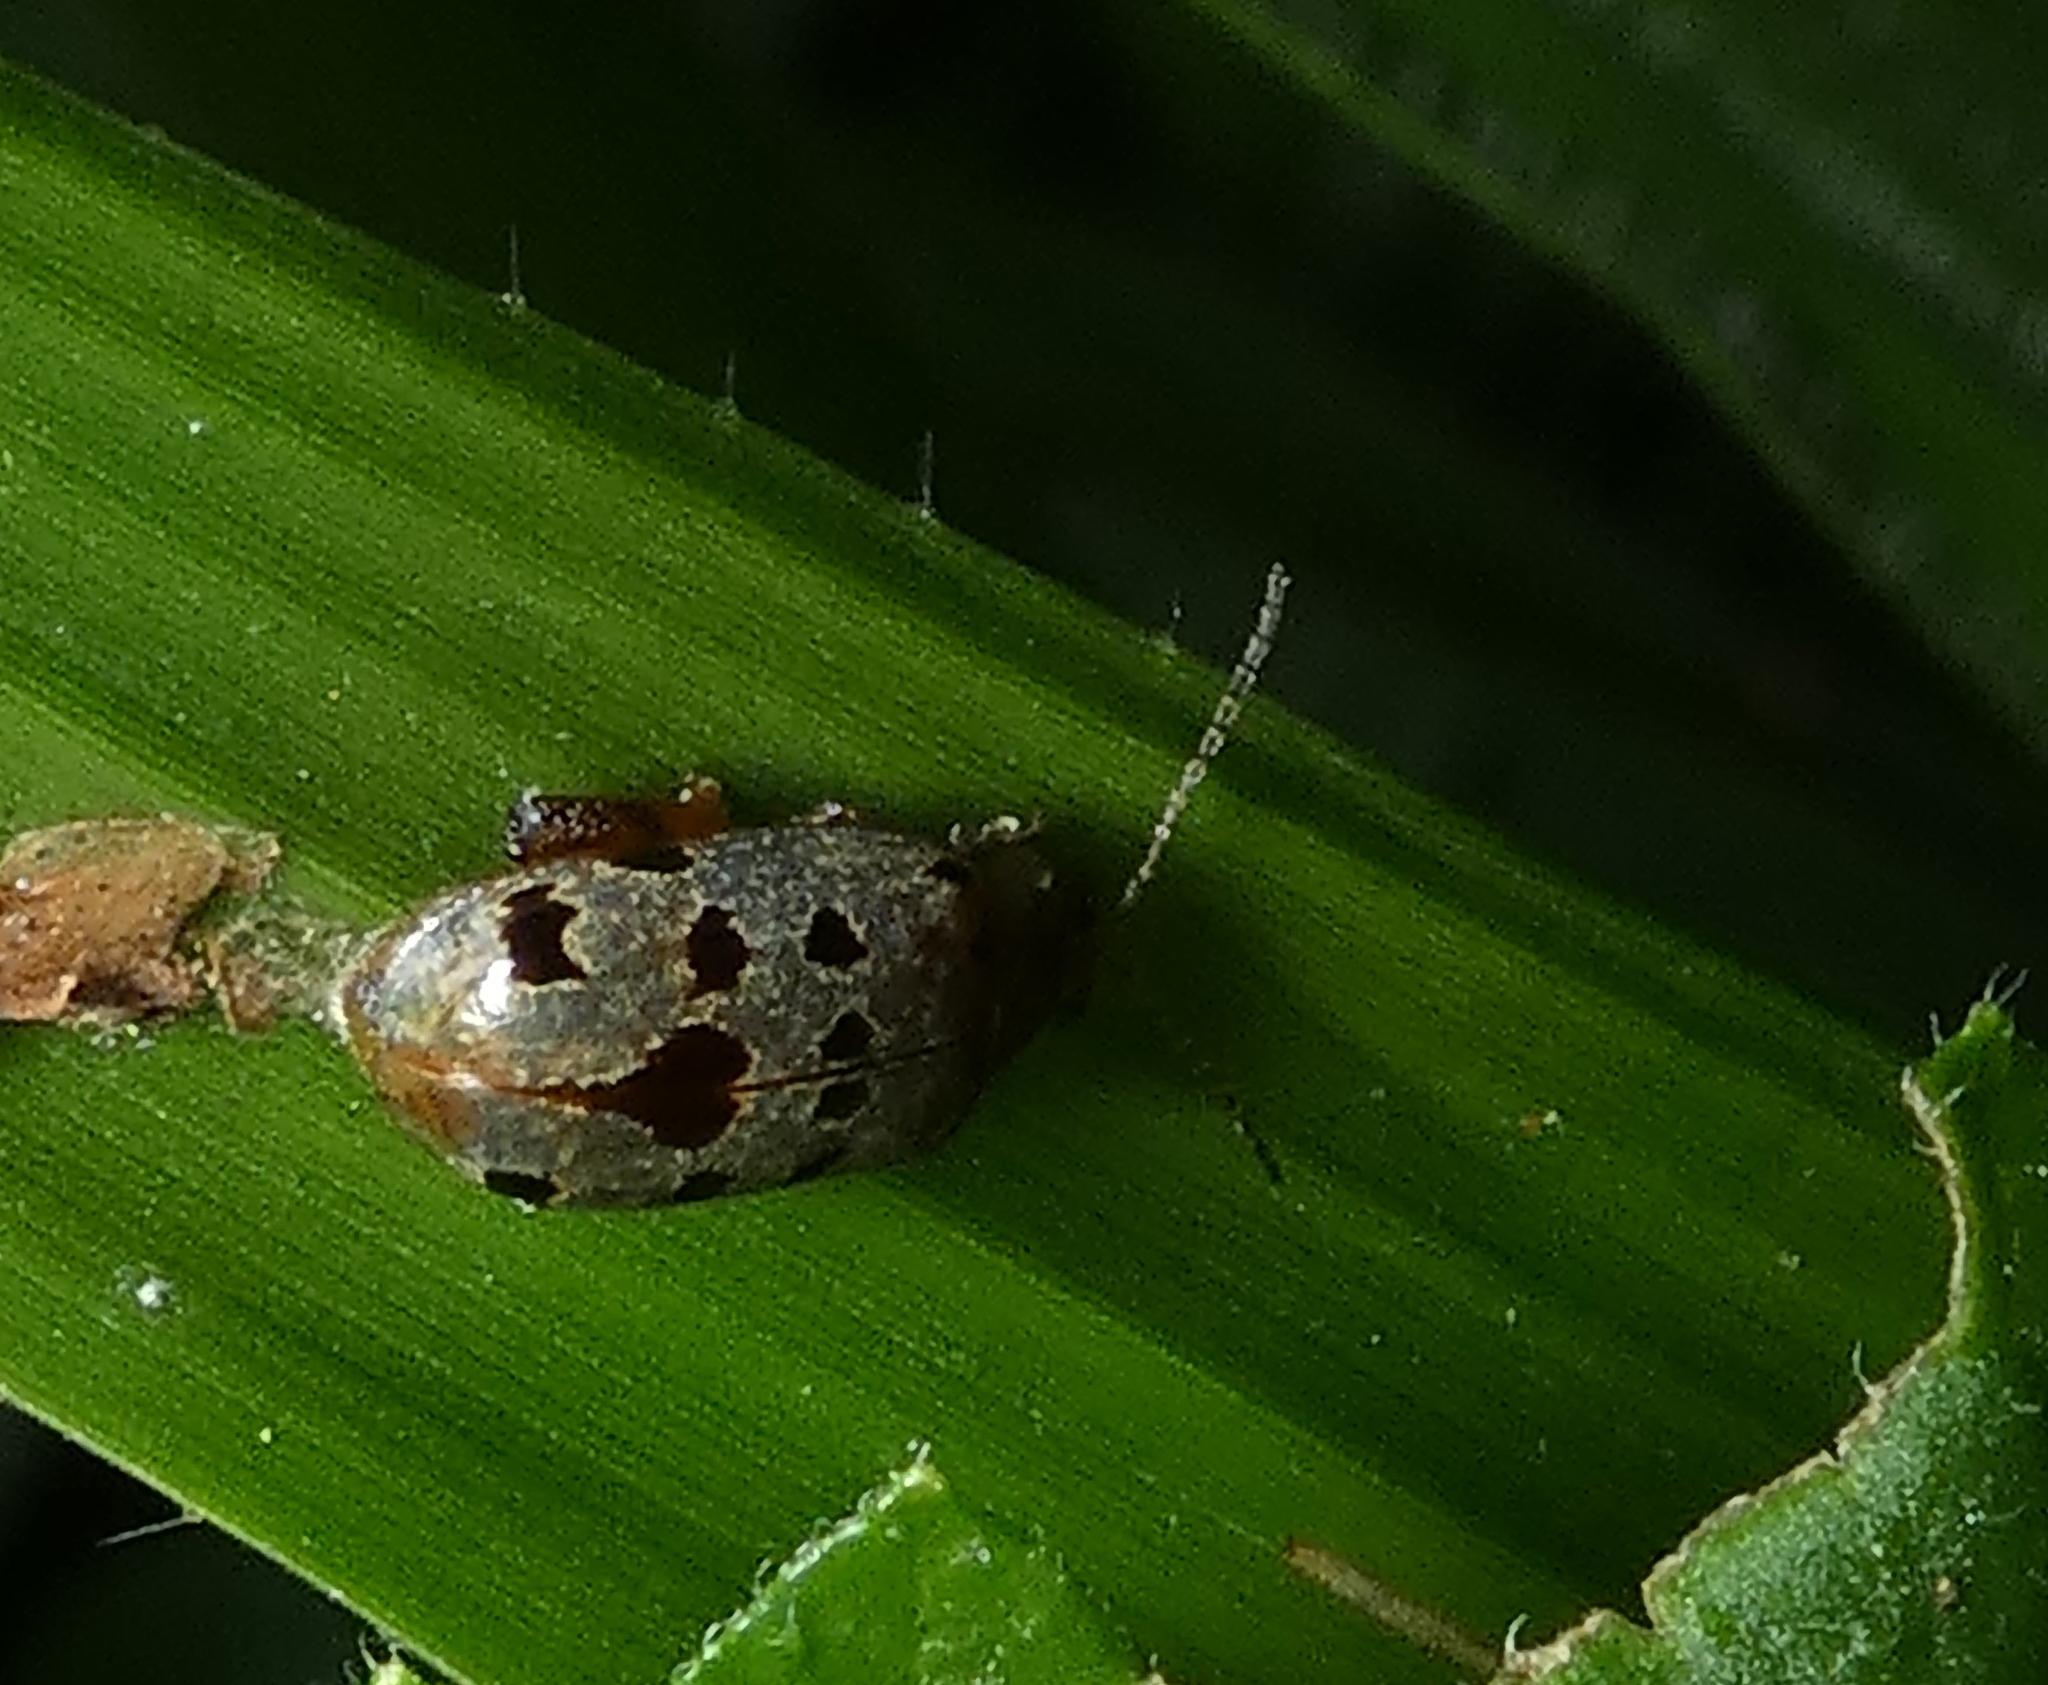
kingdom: Animalia
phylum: Arthropoda
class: Insecta
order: Coleoptera
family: Chrysomelidae
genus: Alagoasa
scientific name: Alagoasa
